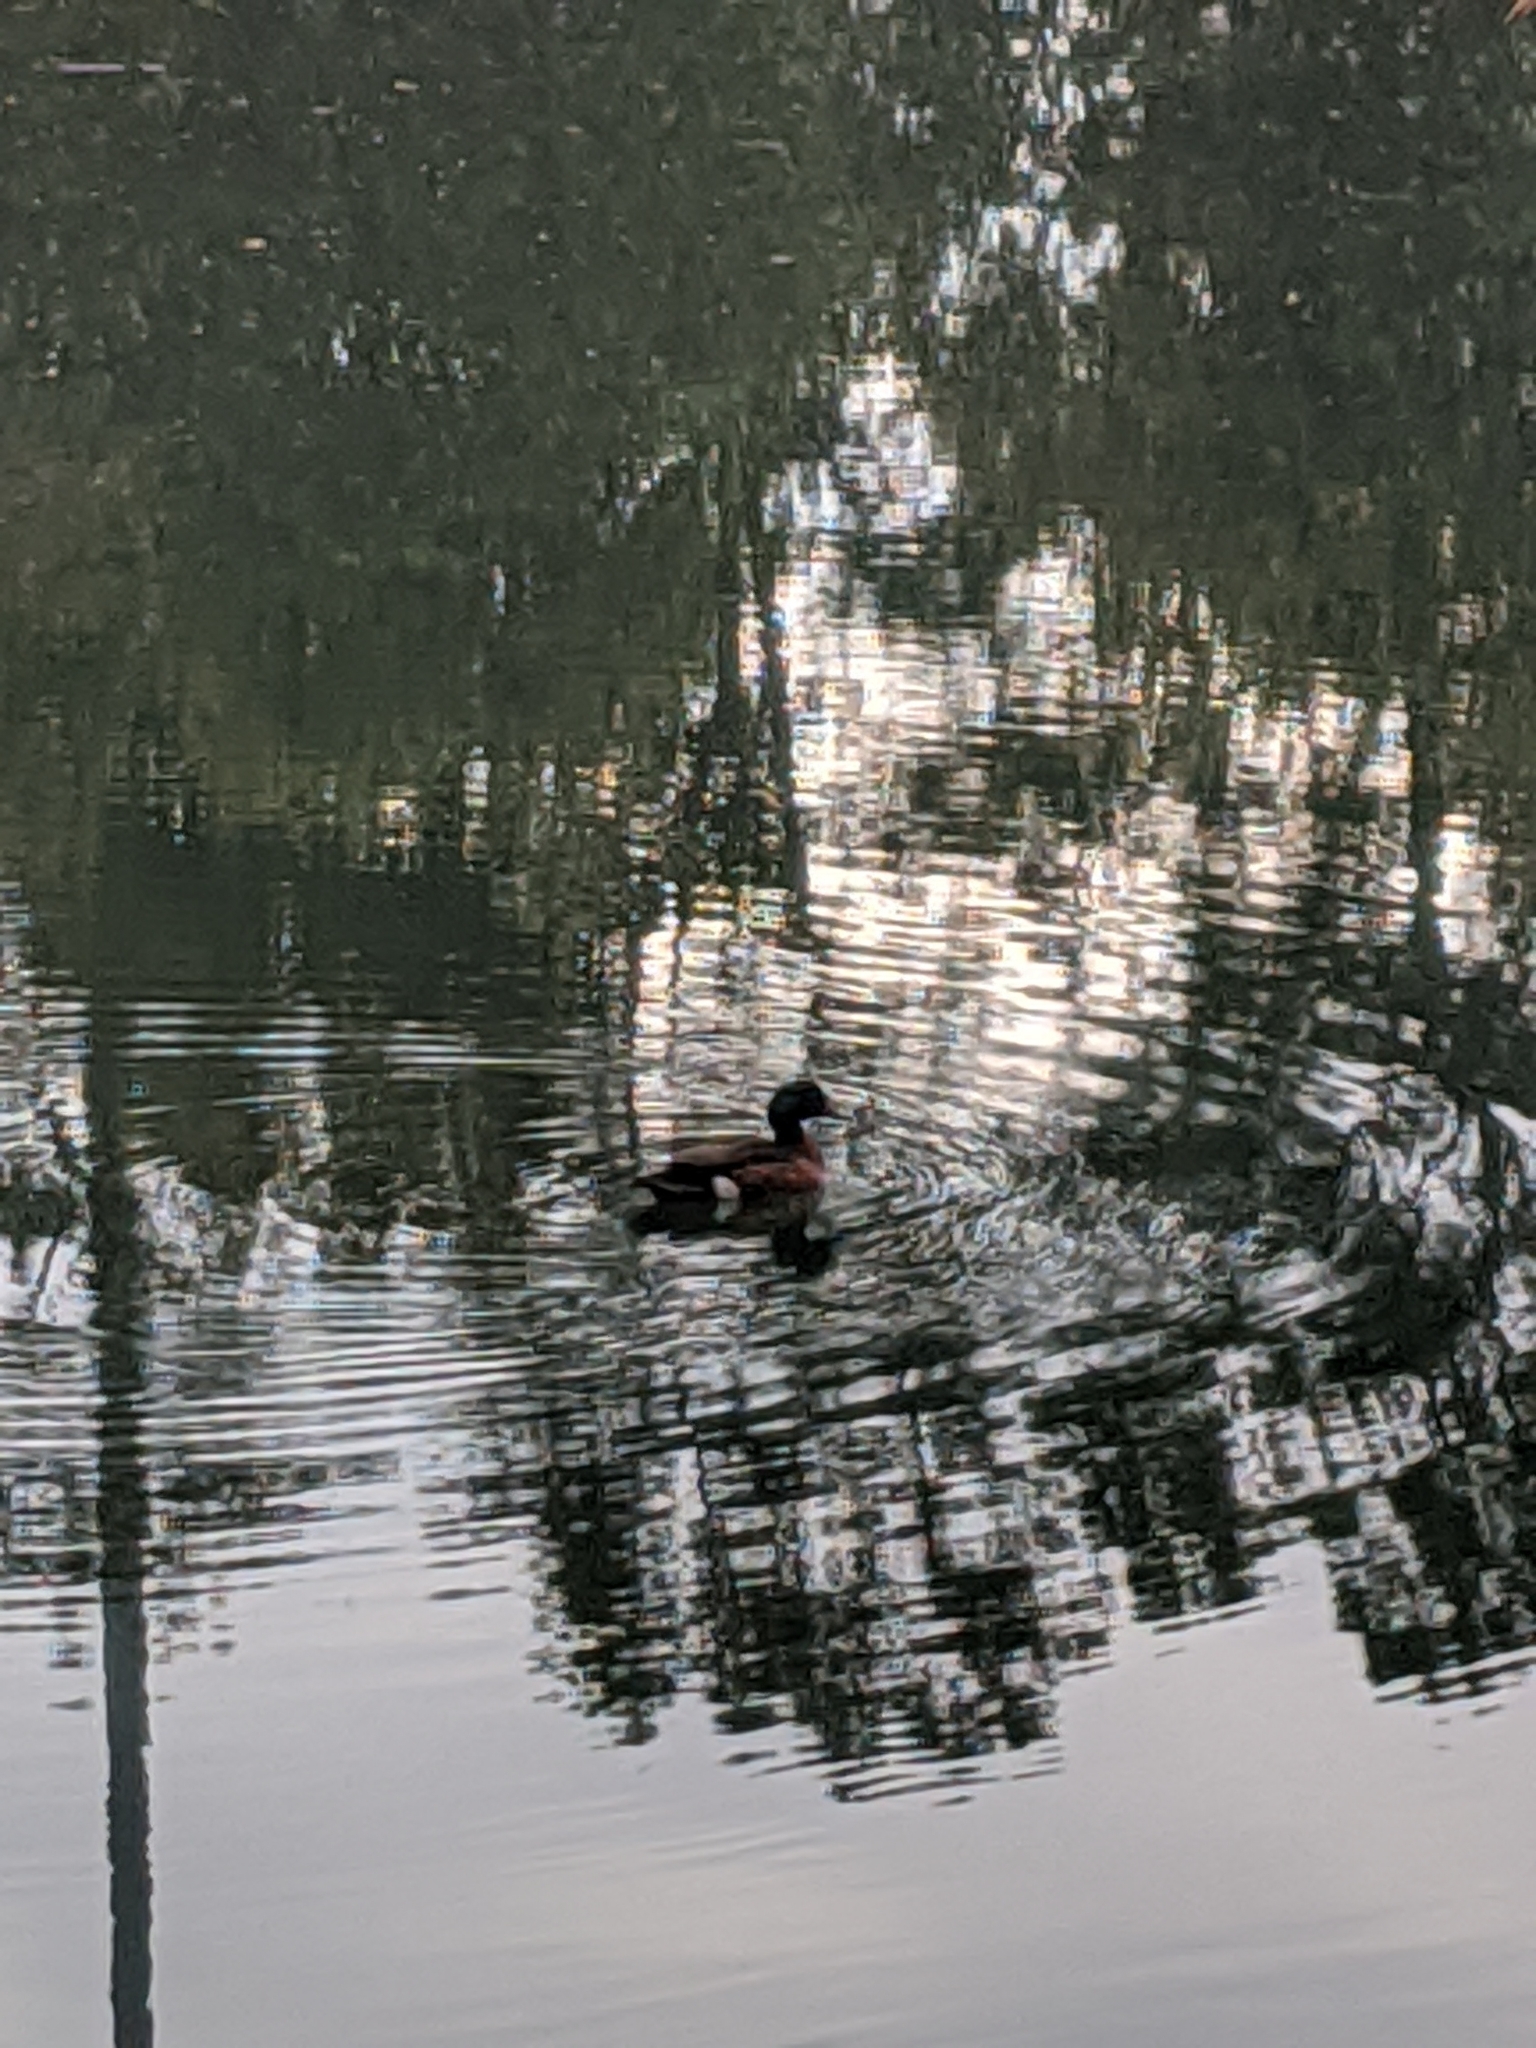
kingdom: Animalia
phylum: Chordata
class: Aves
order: Anseriformes
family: Anatidae
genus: Anas
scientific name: Anas castanea
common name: Chestnut teal
